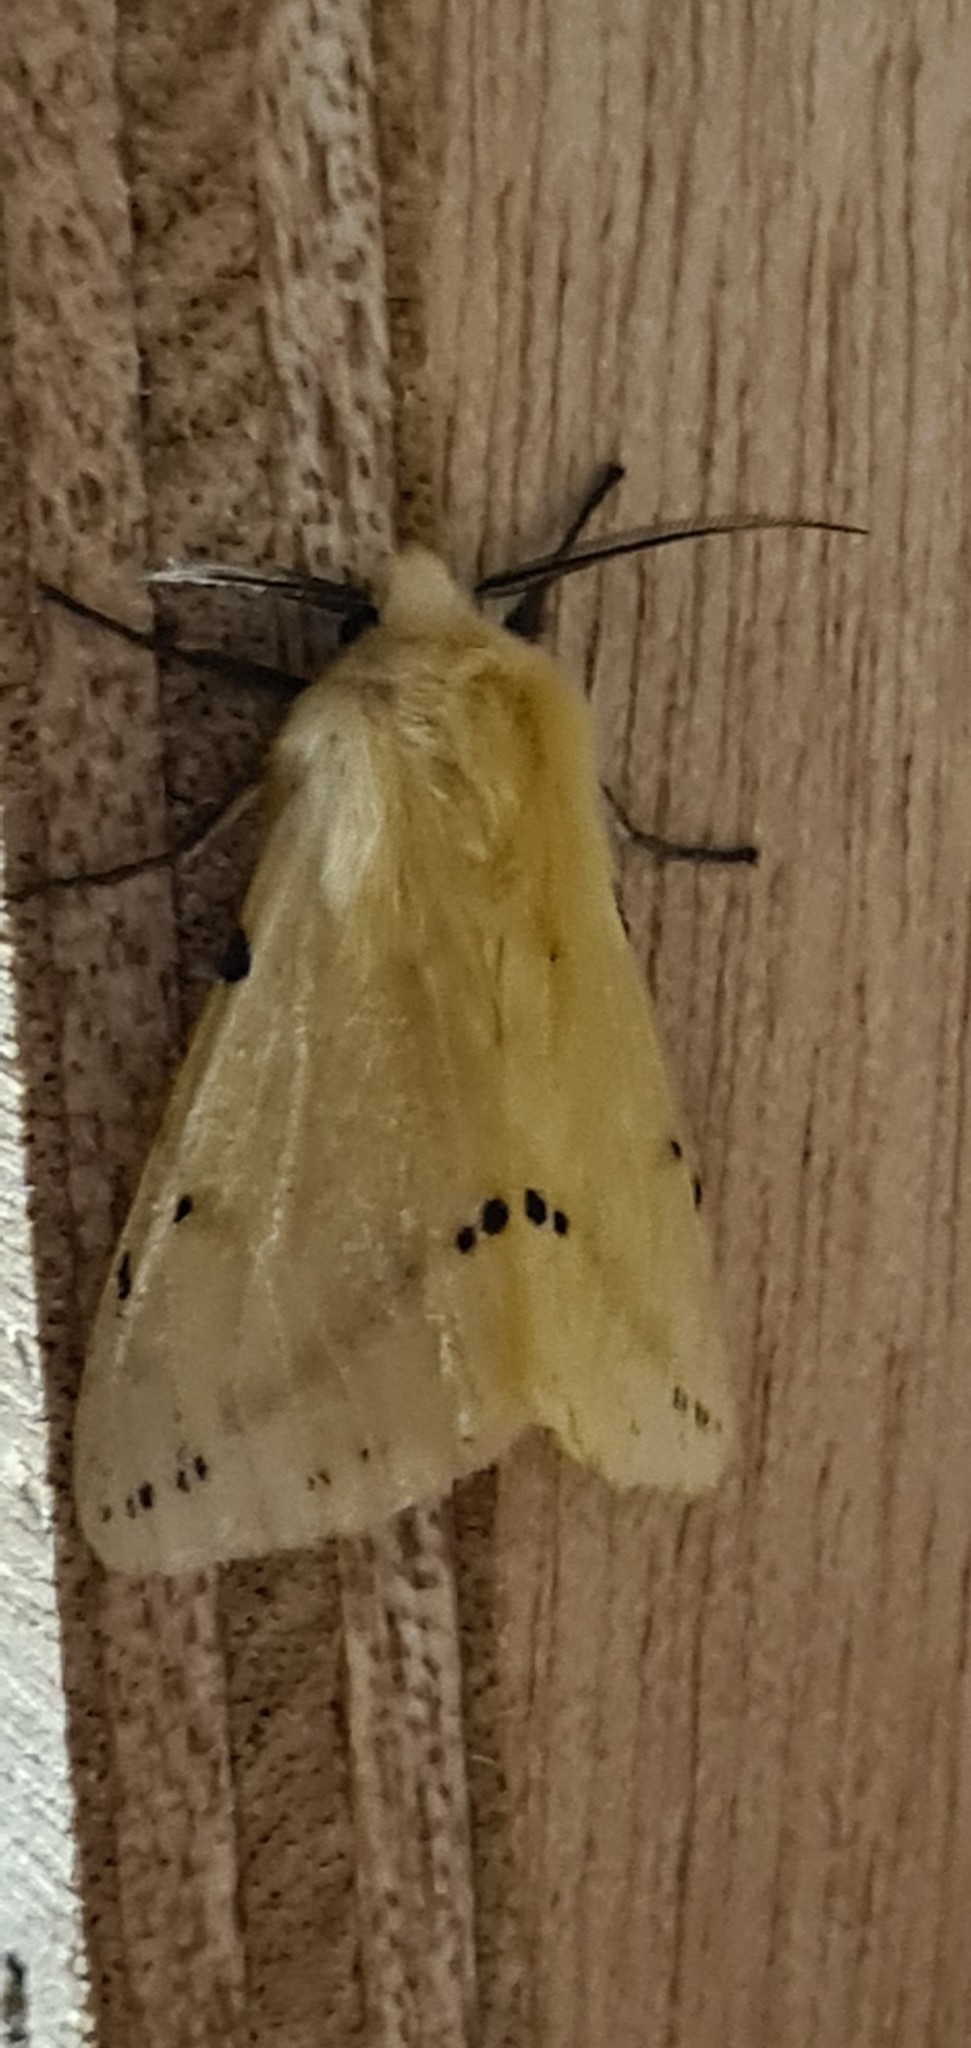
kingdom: Animalia
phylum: Arthropoda
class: Insecta
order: Lepidoptera
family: Erebidae
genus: Spilarctia
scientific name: Spilarctia lutea
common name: Buff ermine
